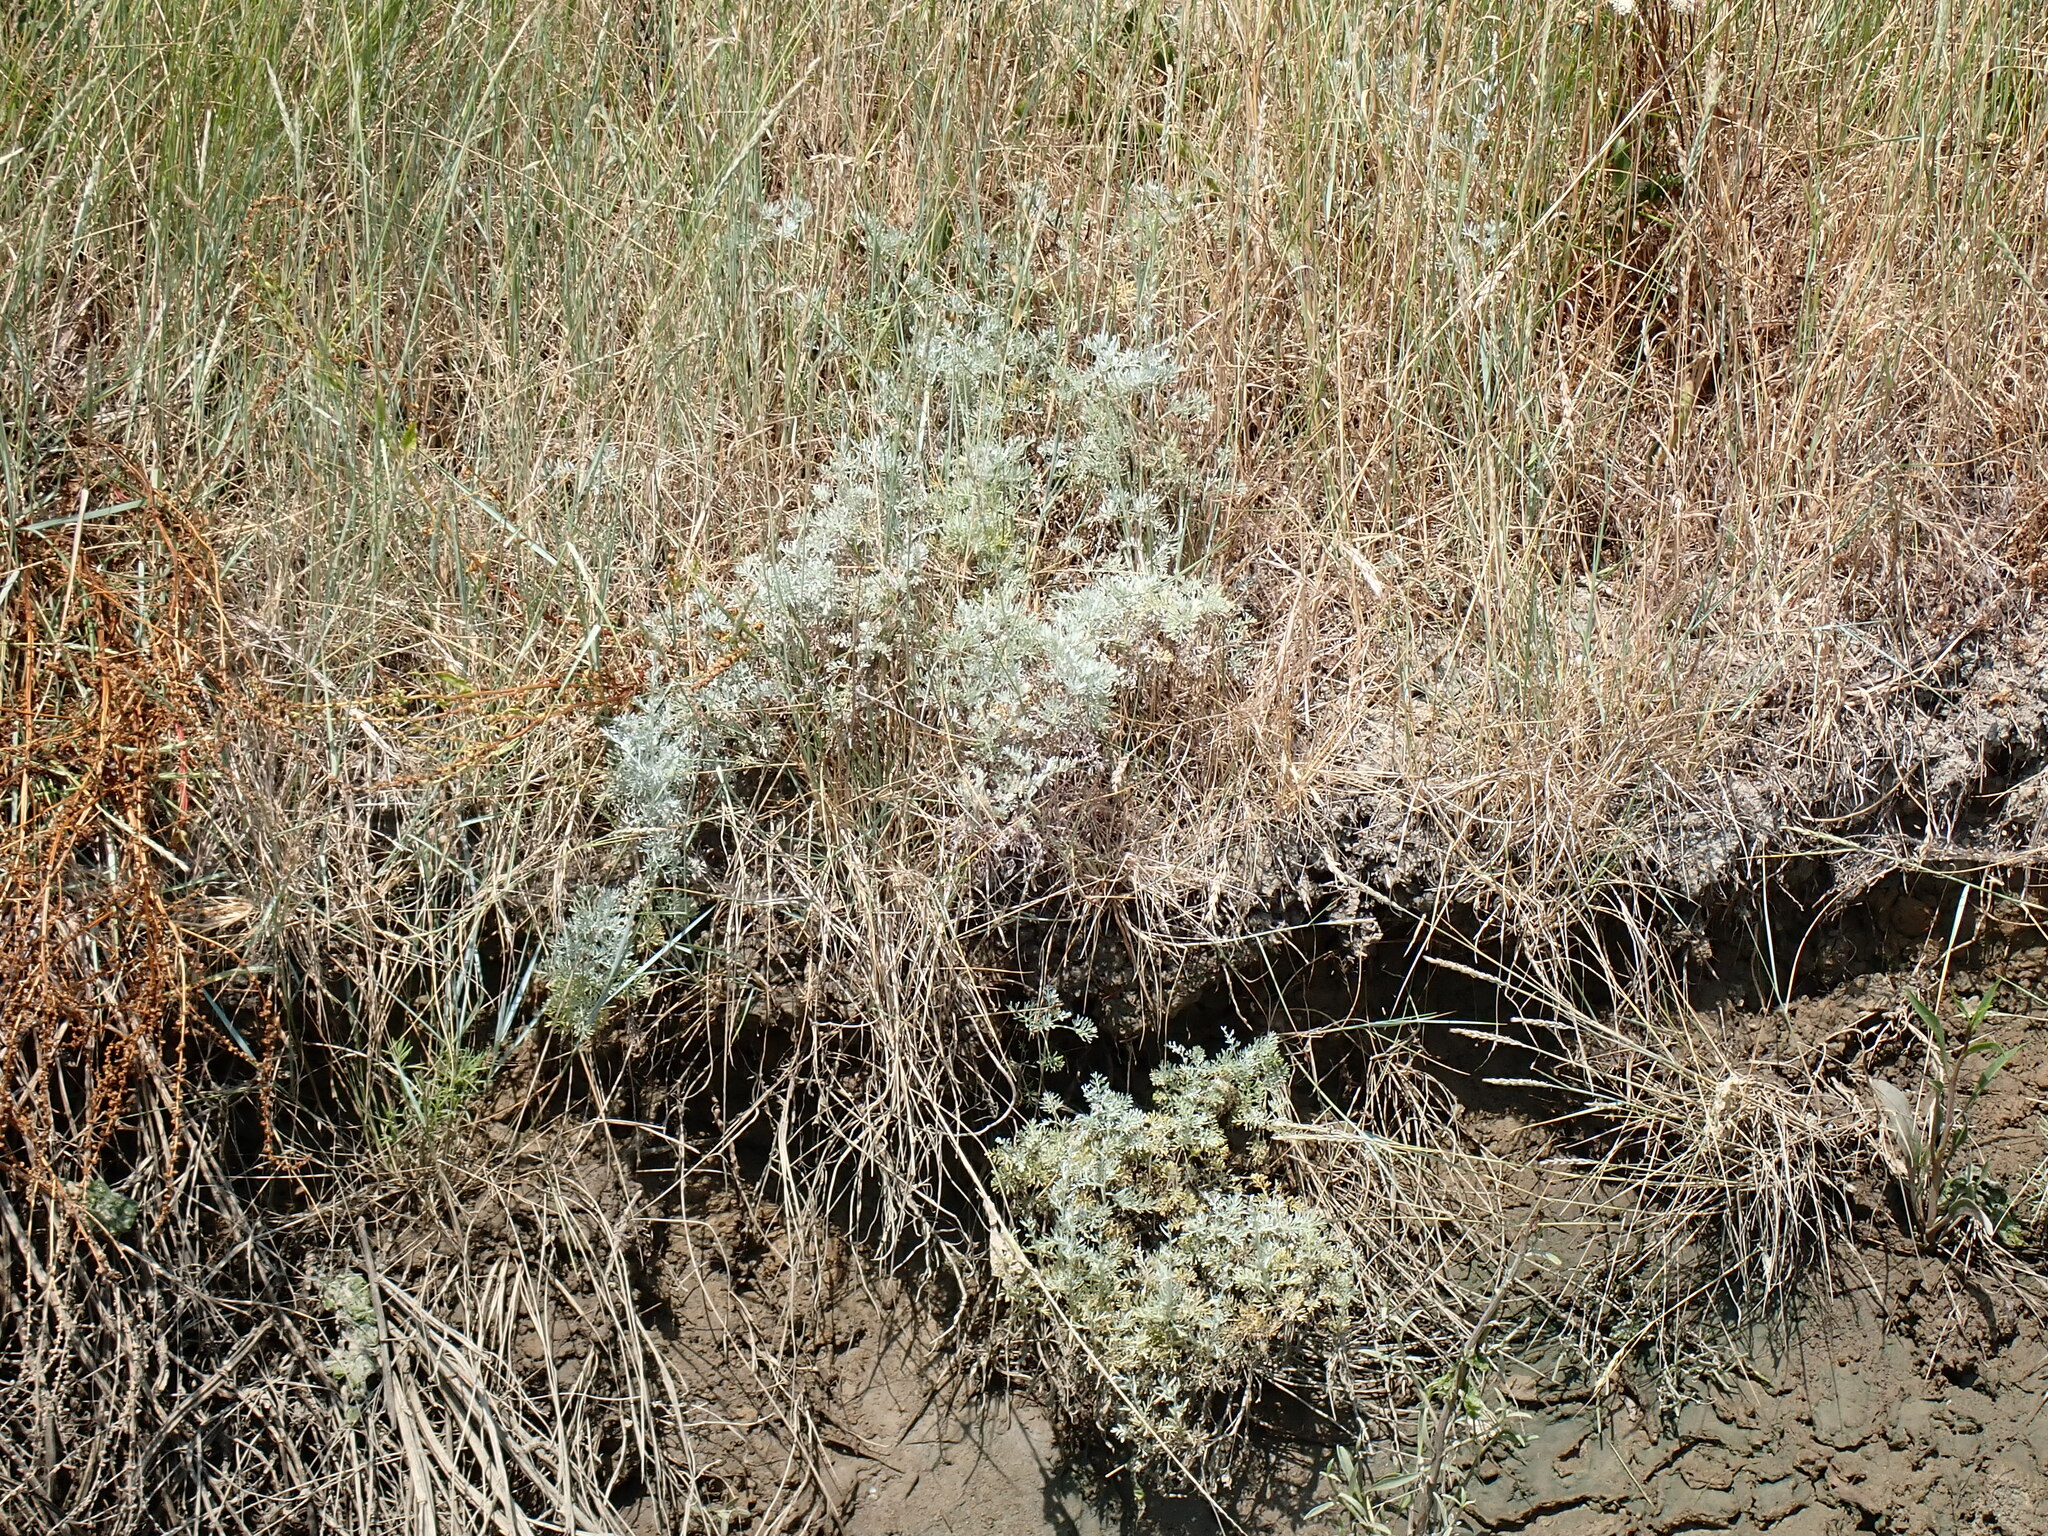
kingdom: Plantae
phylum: Tracheophyta
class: Magnoliopsida
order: Asterales
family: Asteraceae
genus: Artemisia
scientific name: Artemisia maritima
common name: Wormseed
